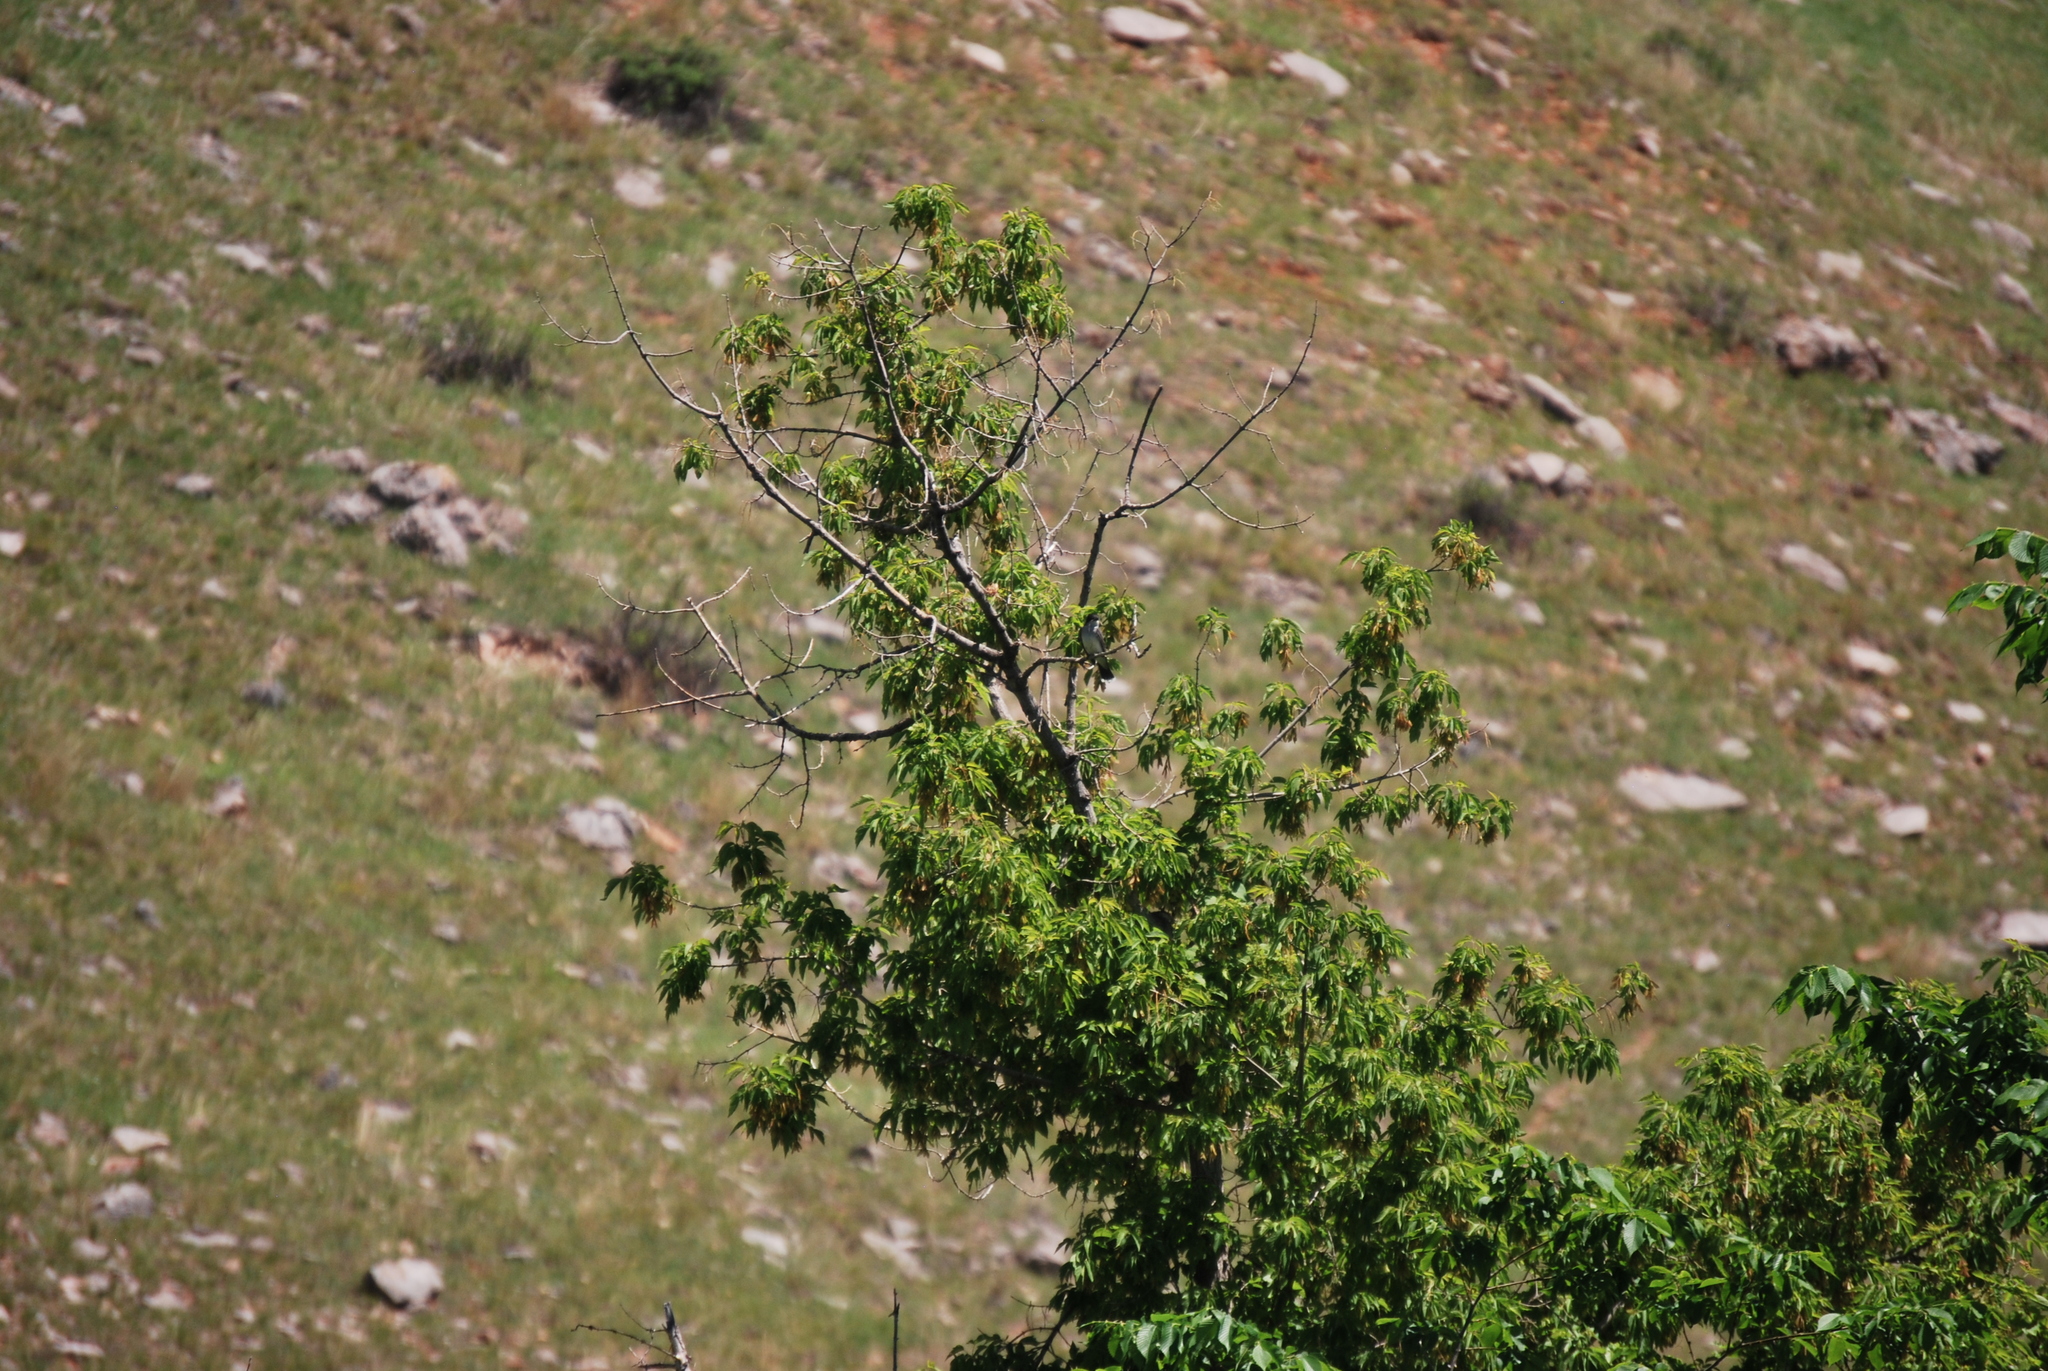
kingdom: Animalia
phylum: Chordata
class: Aves
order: Passeriformes
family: Tyrannidae
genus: Tyrannus
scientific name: Tyrannus tyrannus
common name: Eastern kingbird
